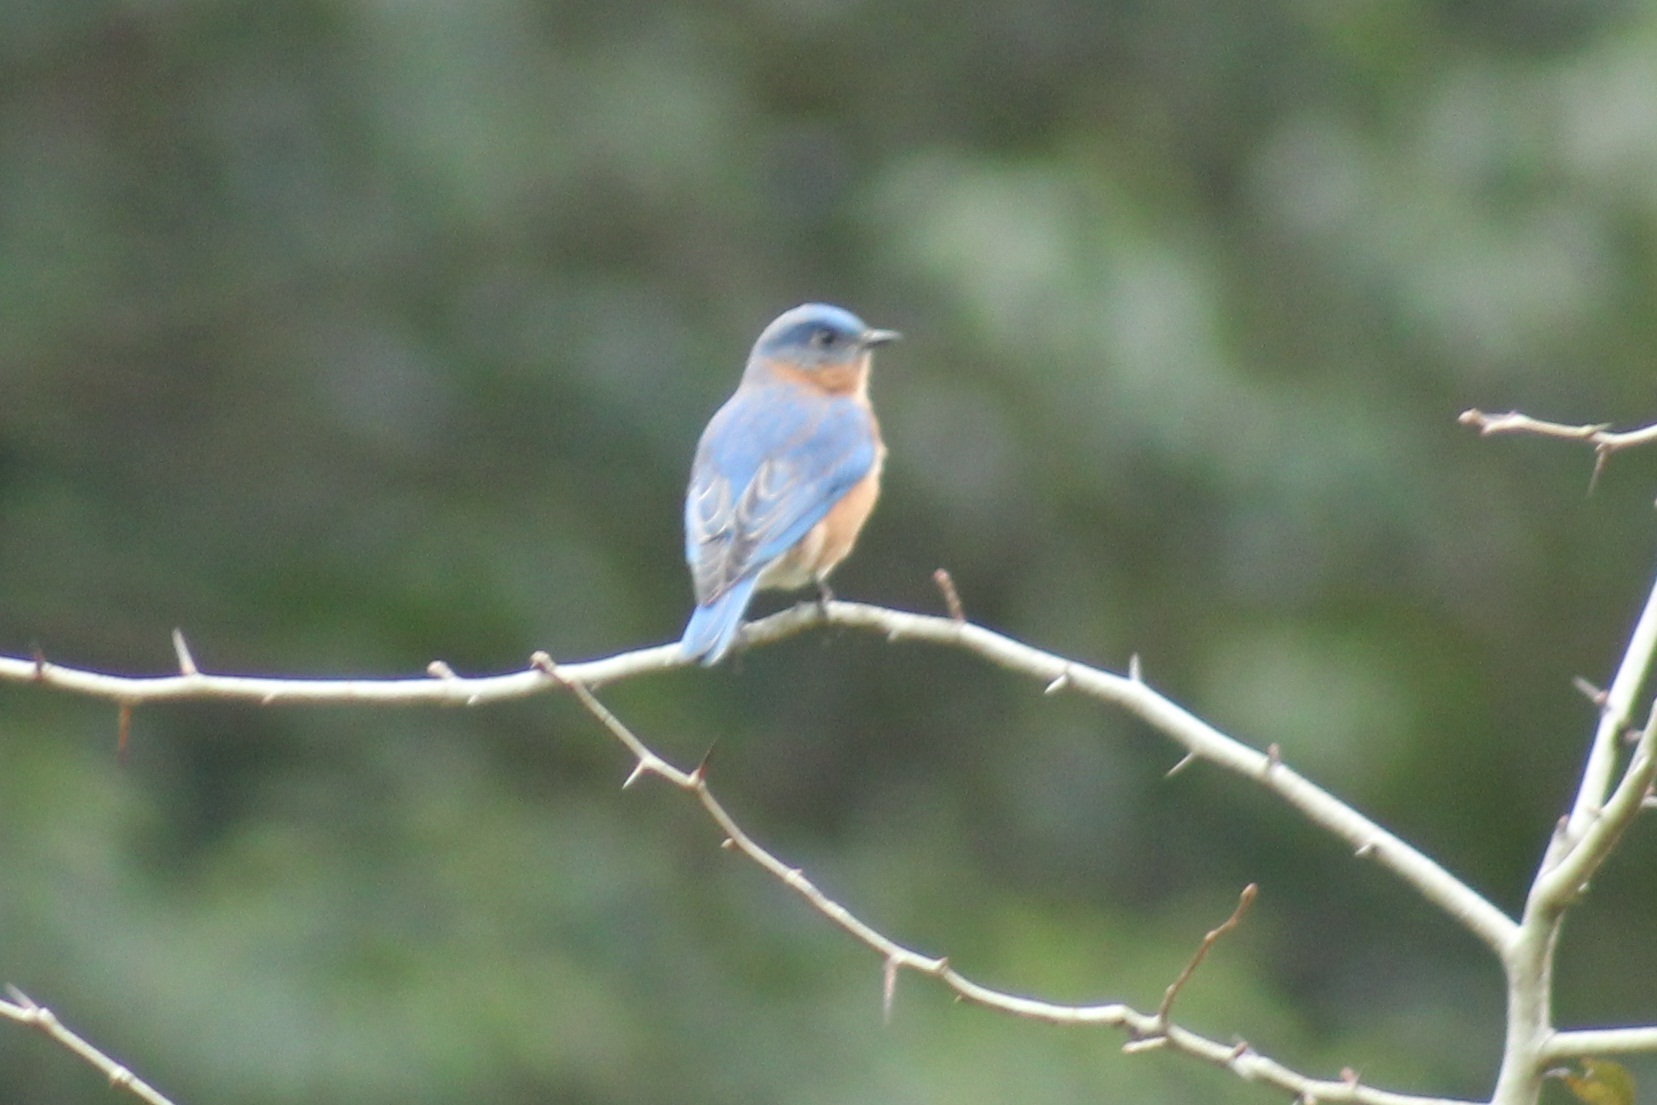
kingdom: Animalia
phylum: Chordata
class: Aves
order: Passeriformes
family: Turdidae
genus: Sialia
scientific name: Sialia sialis
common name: Eastern bluebird
